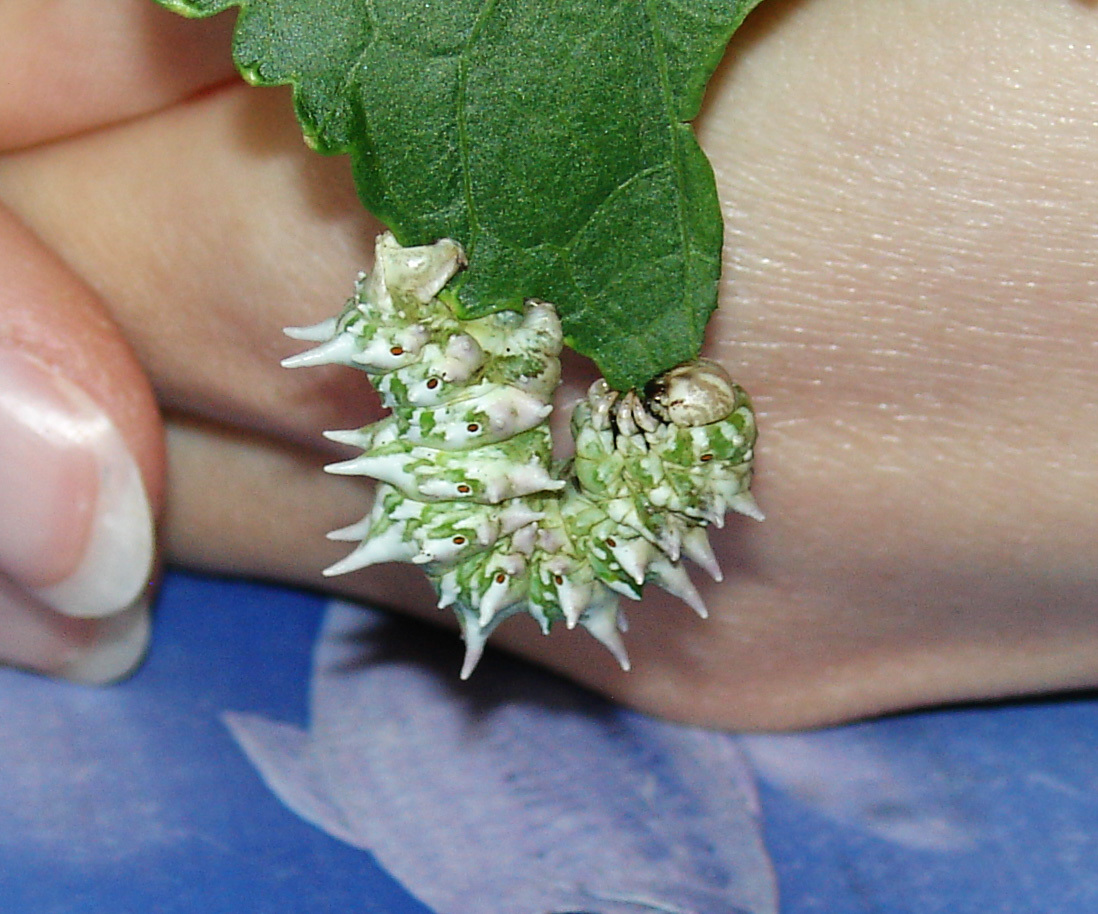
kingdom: Animalia
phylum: Arthropoda
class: Insecta
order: Lepidoptera
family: Geometridae
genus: Apochima
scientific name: Apochima flabellaria
